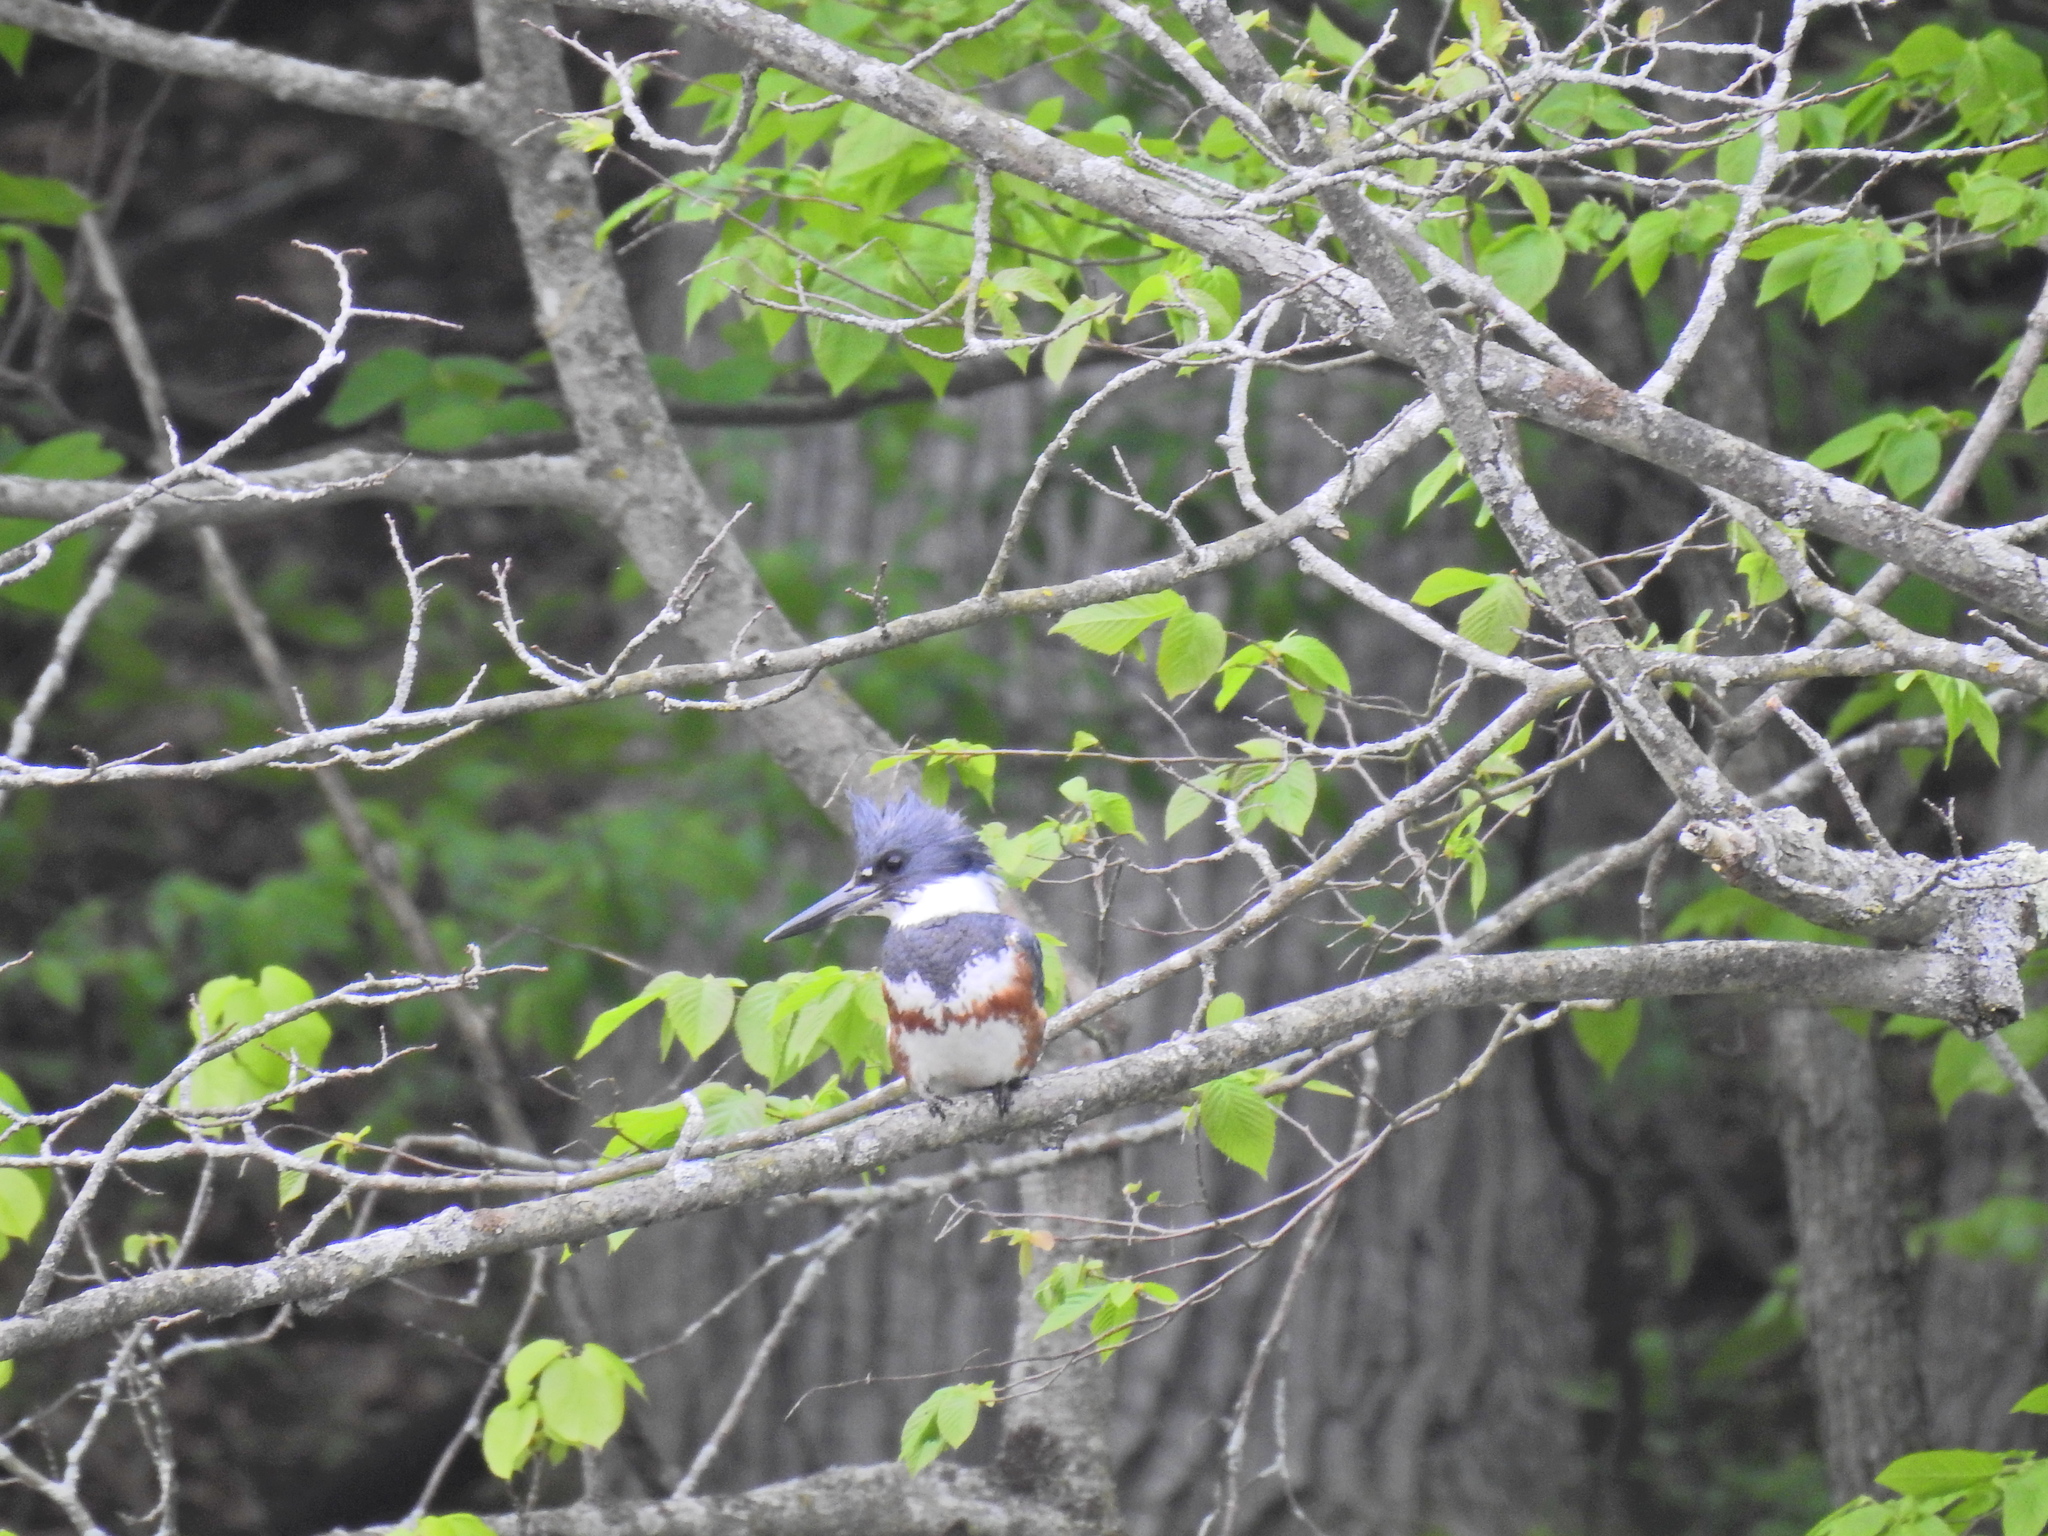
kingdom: Animalia
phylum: Chordata
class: Aves
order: Coraciiformes
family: Alcedinidae
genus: Megaceryle
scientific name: Megaceryle alcyon
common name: Belted kingfisher
